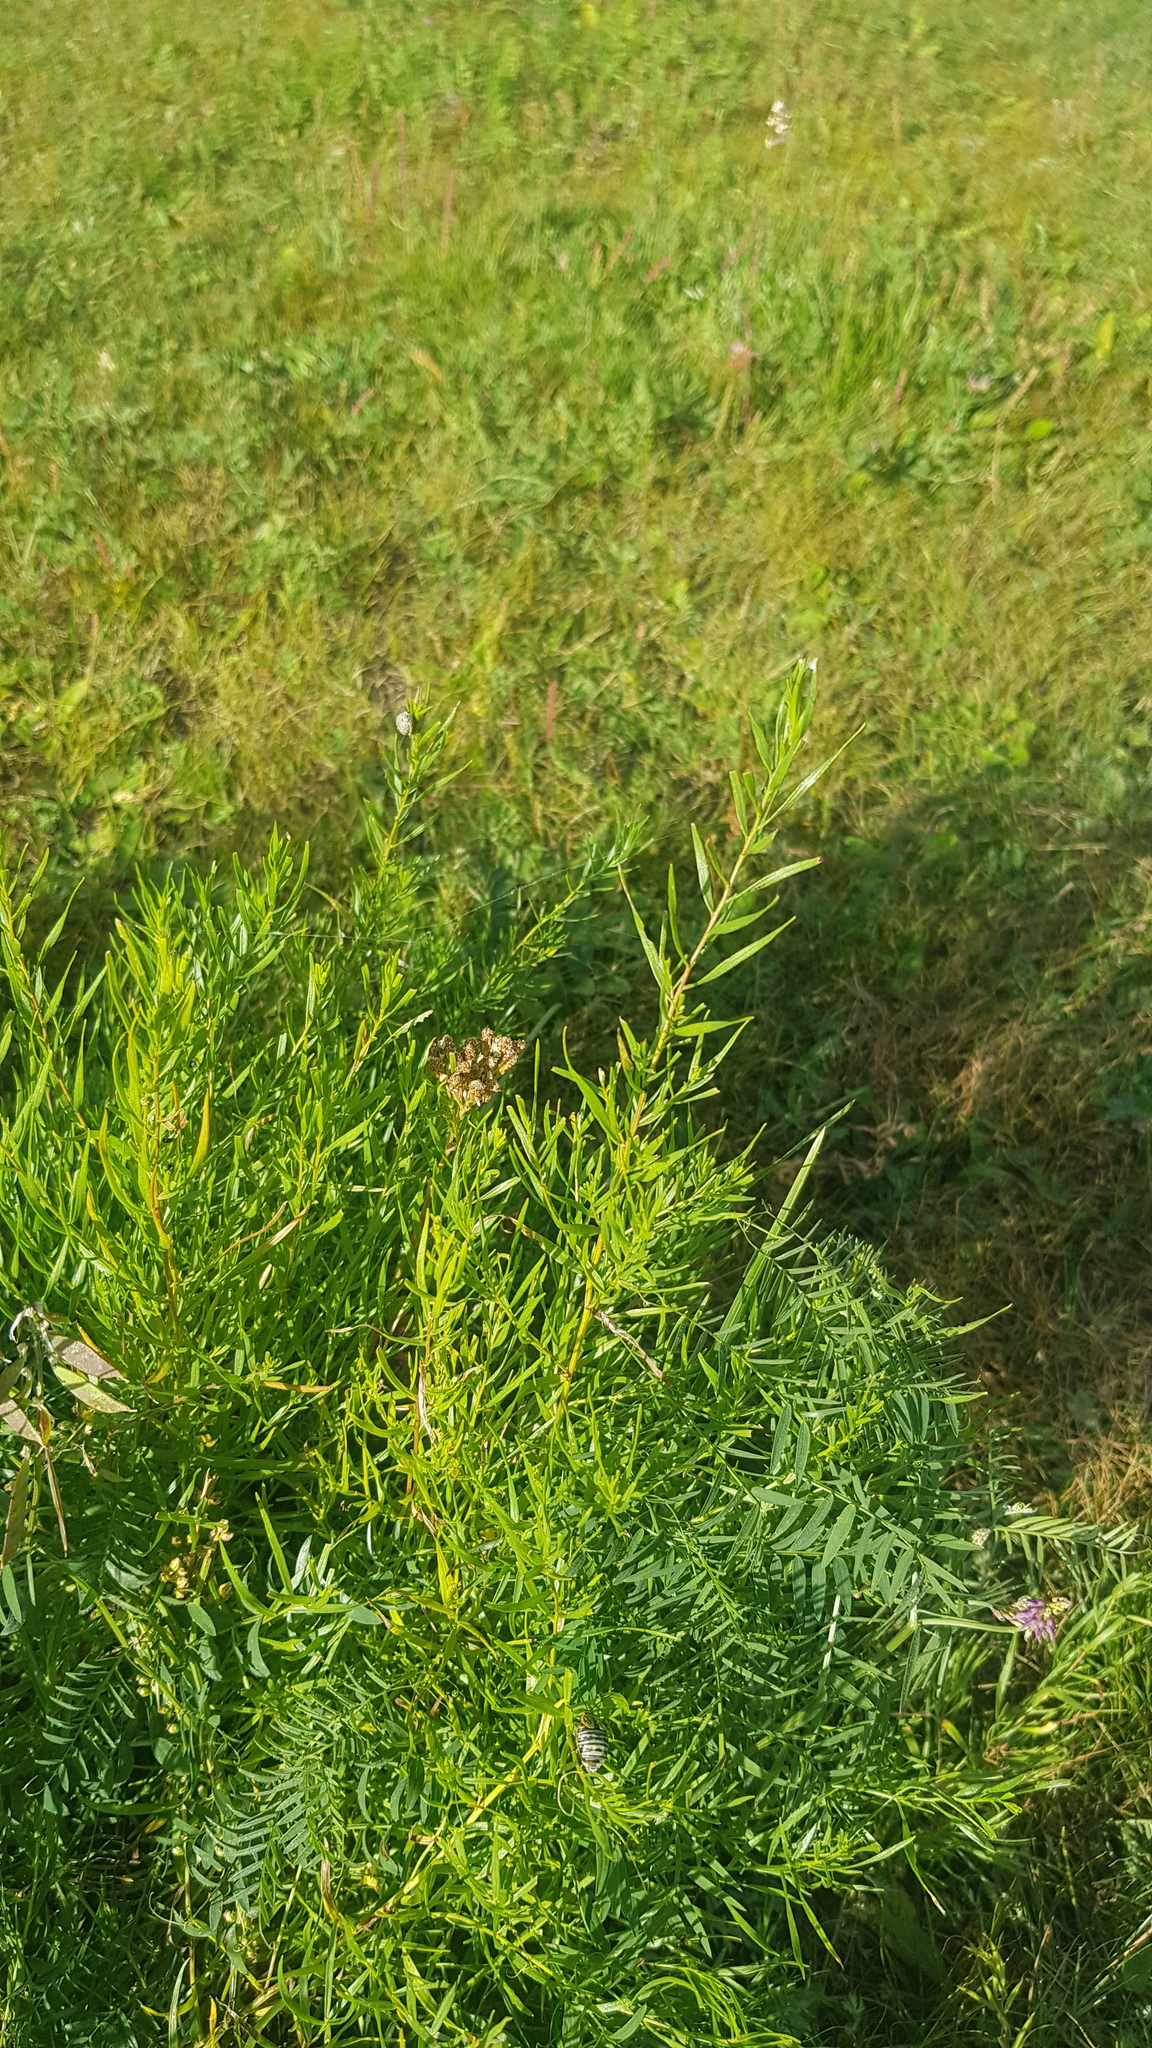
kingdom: Plantae
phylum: Tracheophyta
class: Magnoliopsida
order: Asterales
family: Asteraceae
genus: Artemisia
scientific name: Artemisia dracunculus
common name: Tarragon
